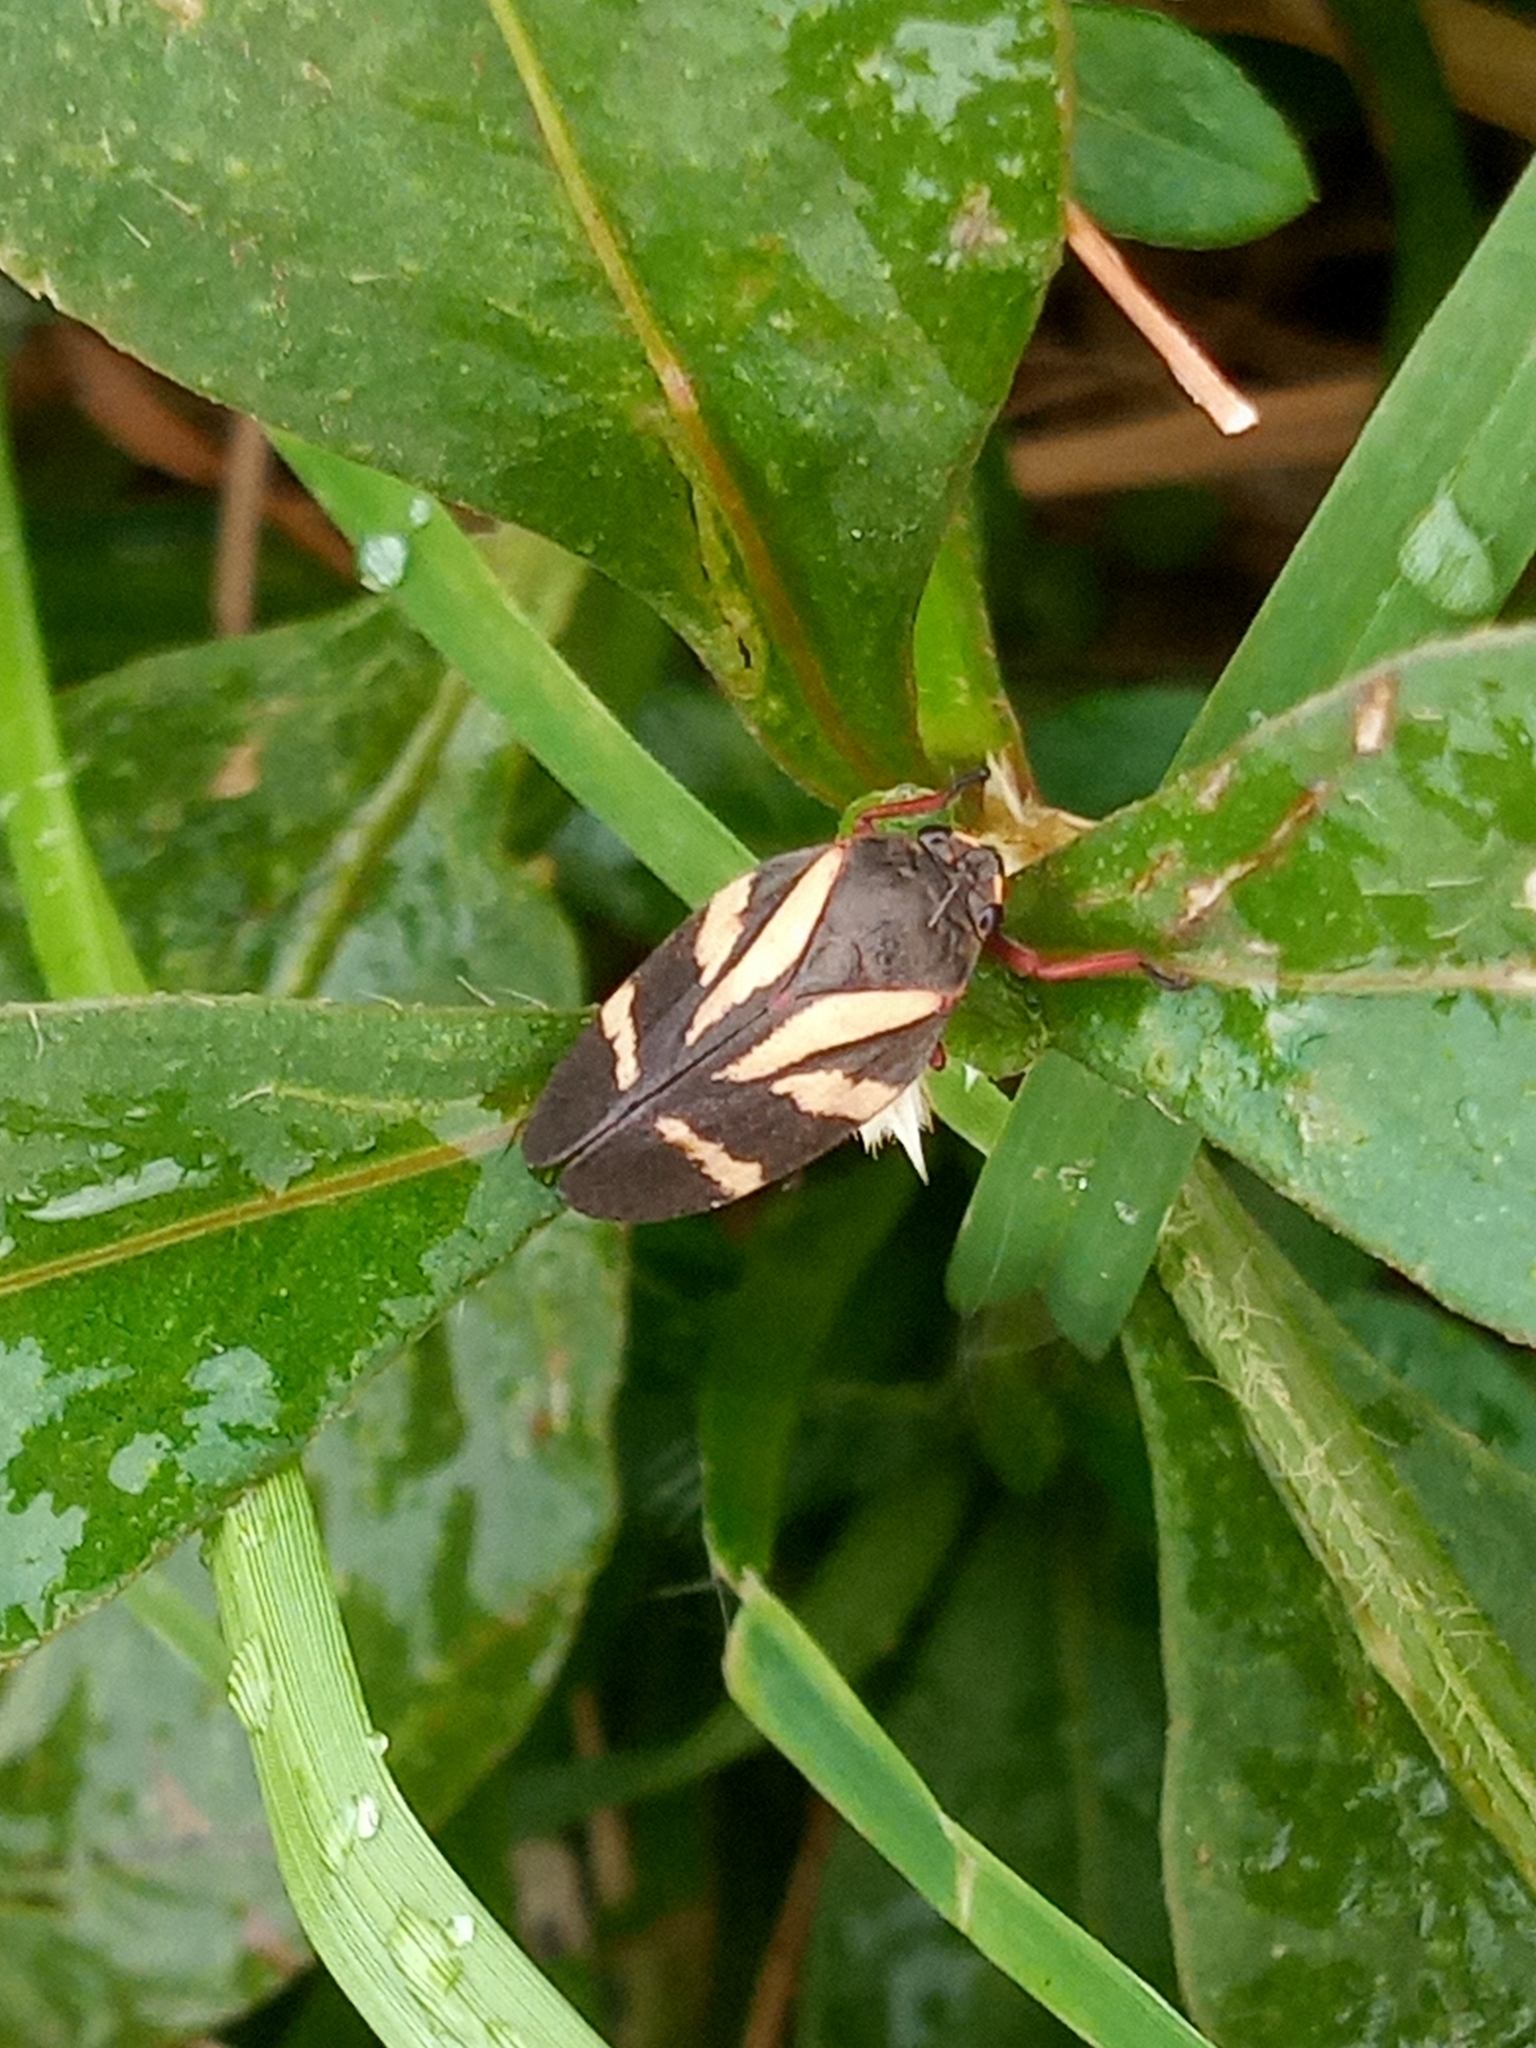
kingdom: Animalia
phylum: Arthropoda
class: Insecta
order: Hemiptera
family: Cercopidae
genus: Deois
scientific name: Deois flavopicta
